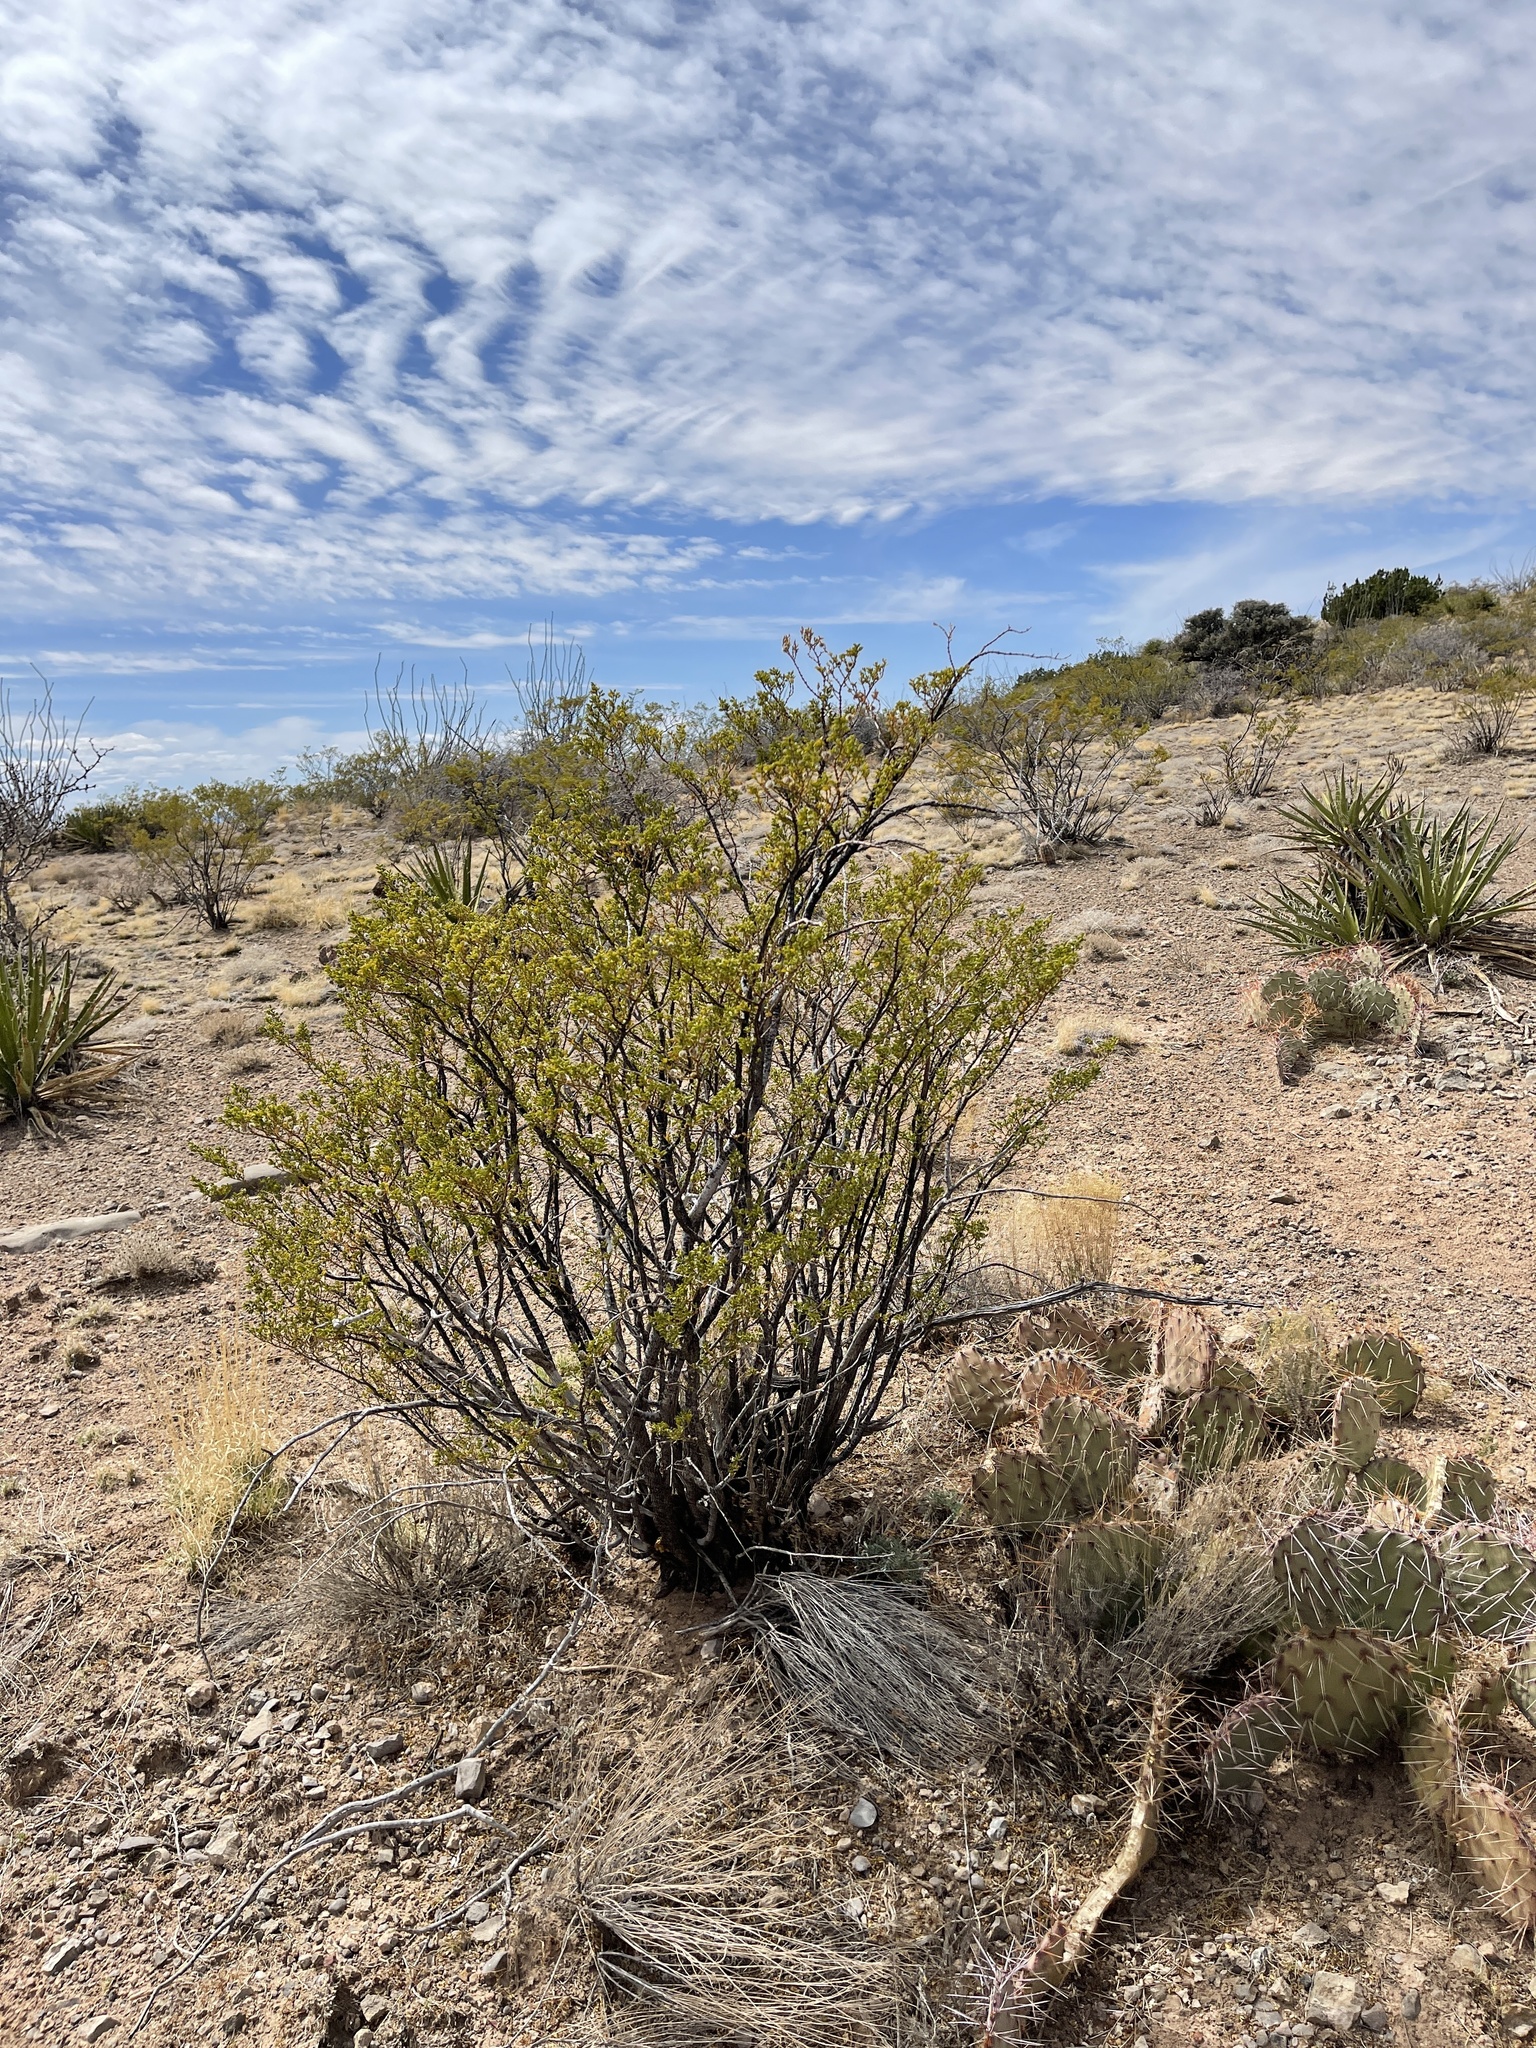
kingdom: Plantae
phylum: Tracheophyta
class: Magnoliopsida
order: Zygophyllales
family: Zygophyllaceae
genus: Larrea
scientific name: Larrea tridentata
